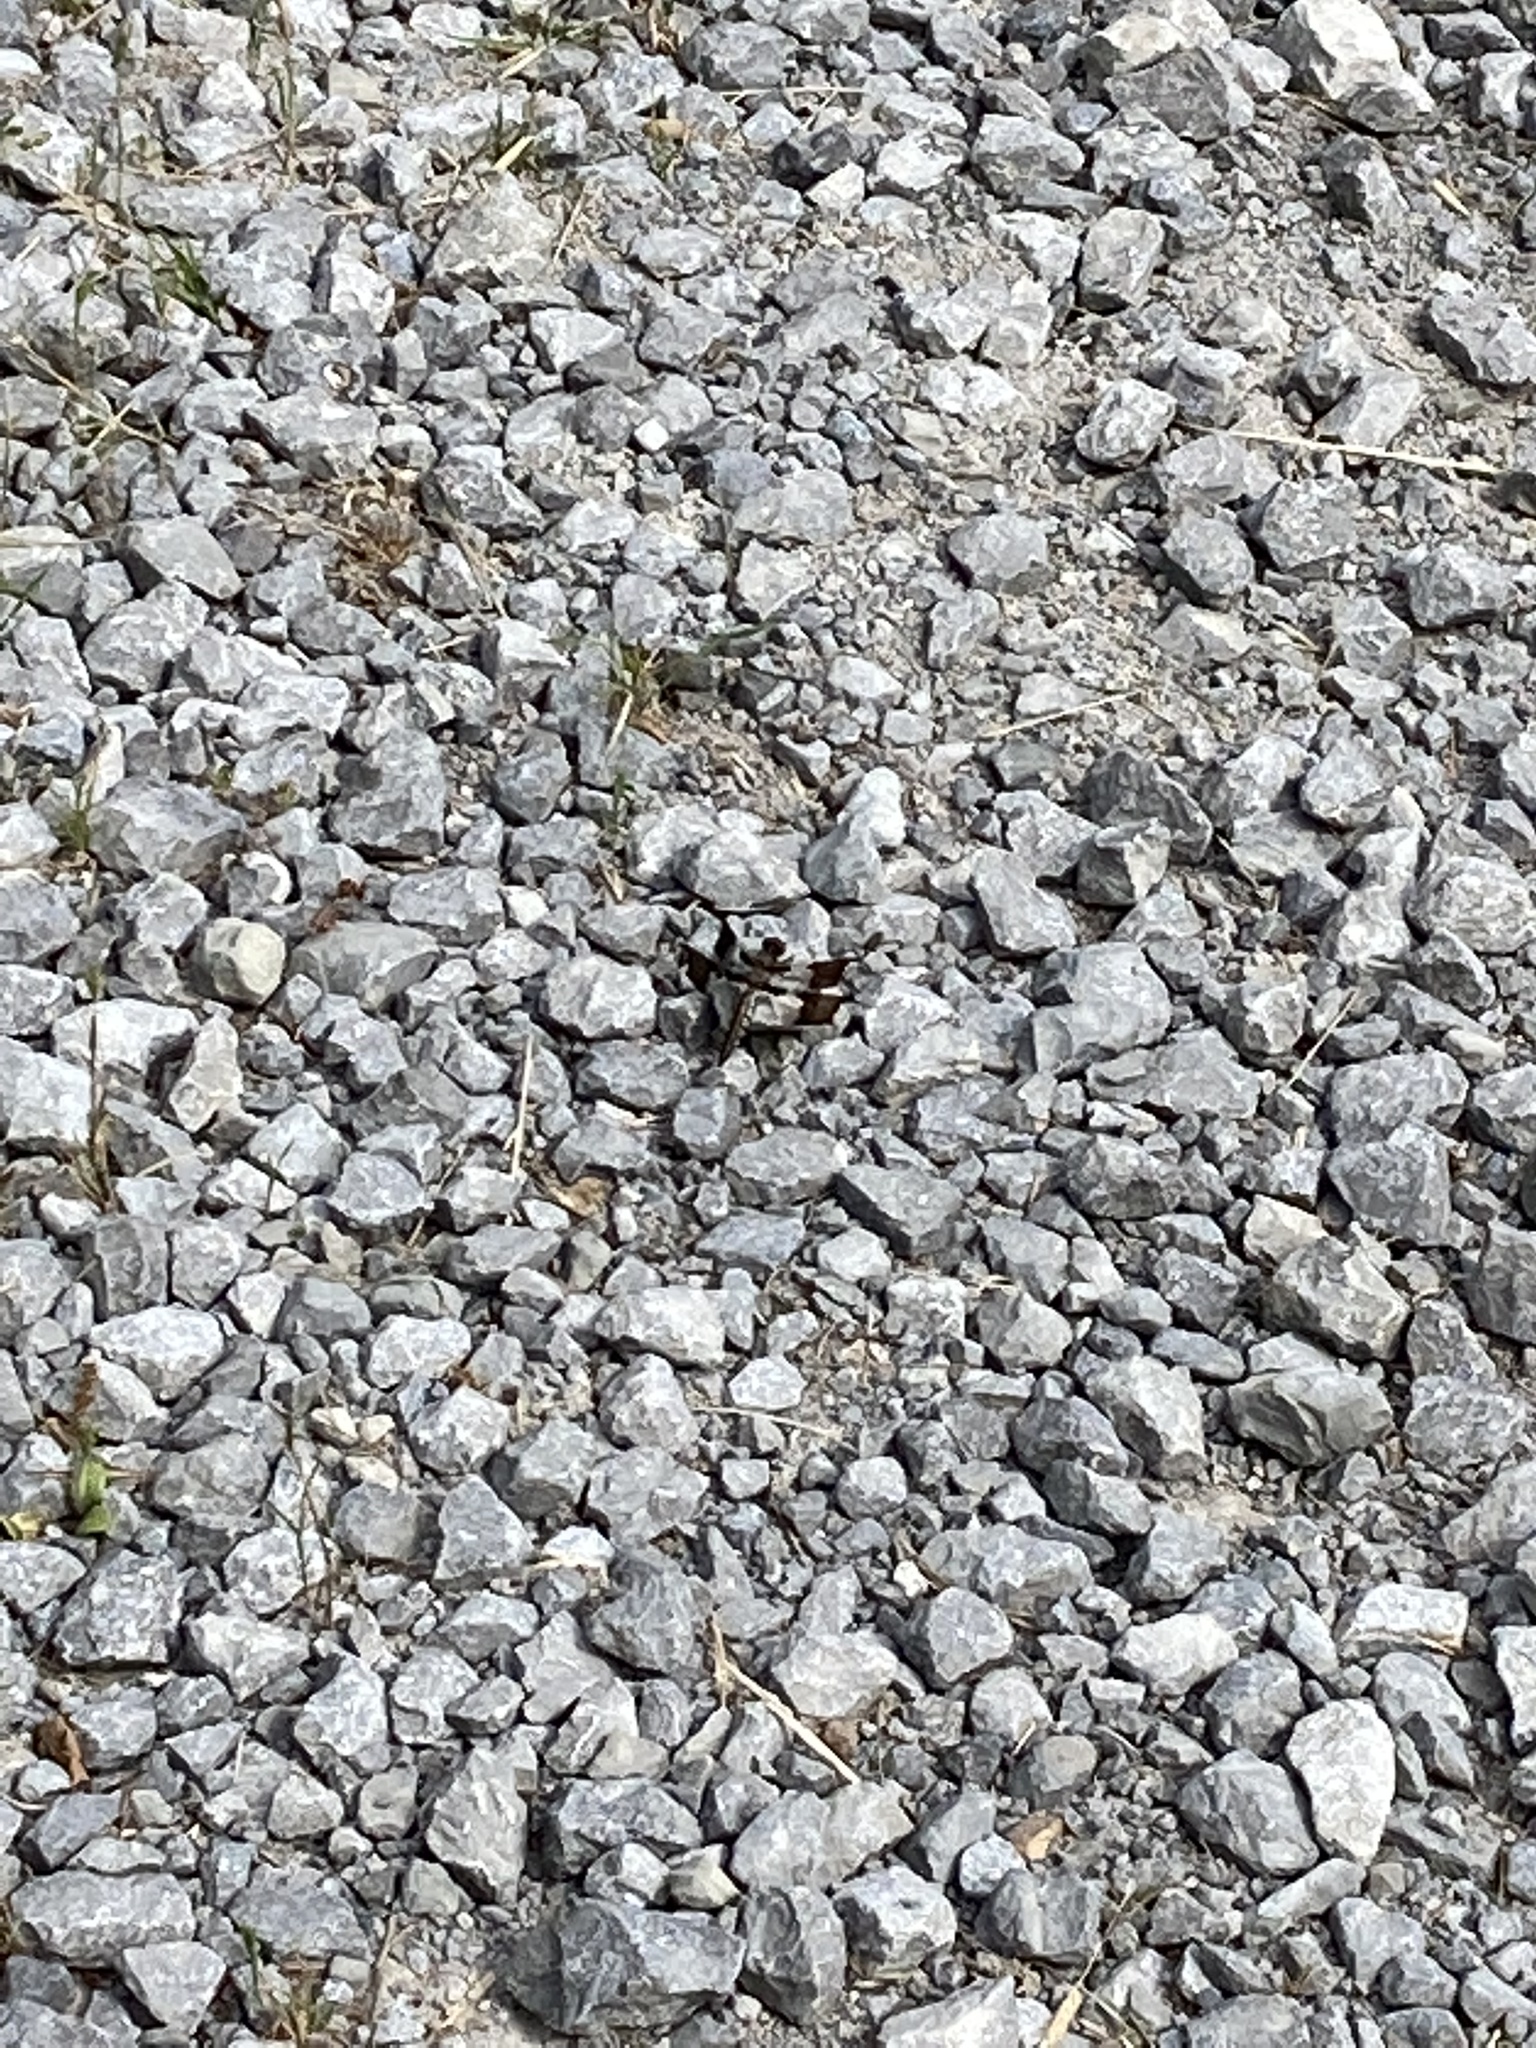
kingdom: Animalia
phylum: Arthropoda
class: Insecta
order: Odonata
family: Libellulidae
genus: Plathemis
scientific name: Plathemis lydia
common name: Common whitetail
